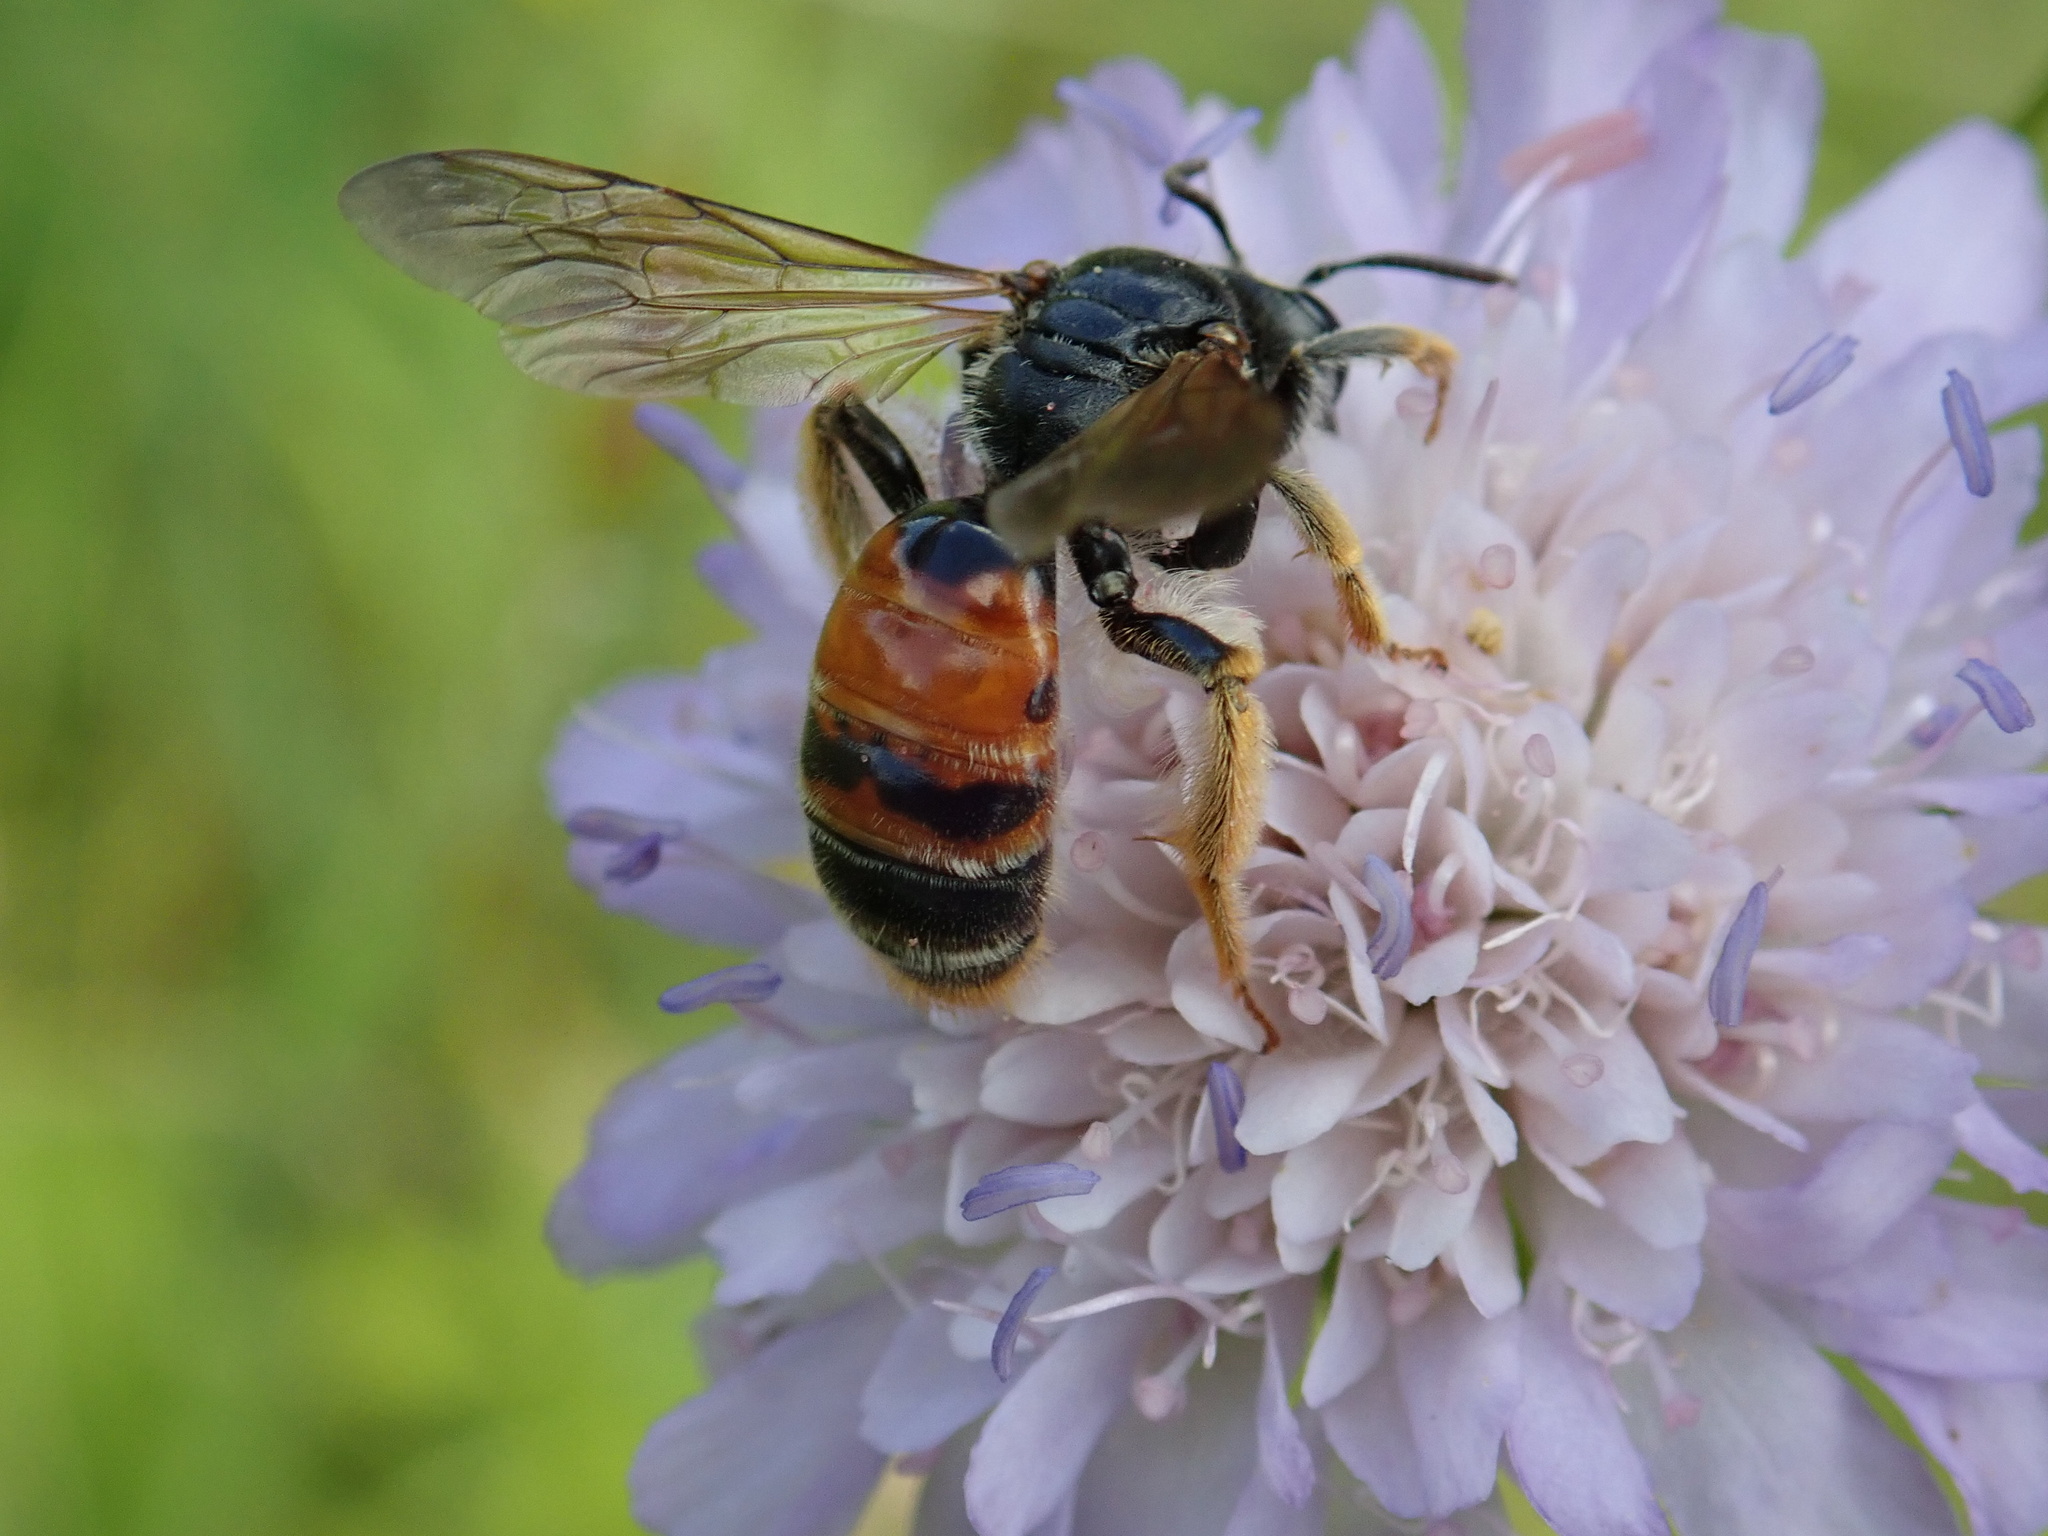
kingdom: Animalia
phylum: Arthropoda
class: Insecta
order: Hymenoptera
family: Andrenidae
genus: Andrena
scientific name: Andrena hattorfiana
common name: Large scabious mining bee
